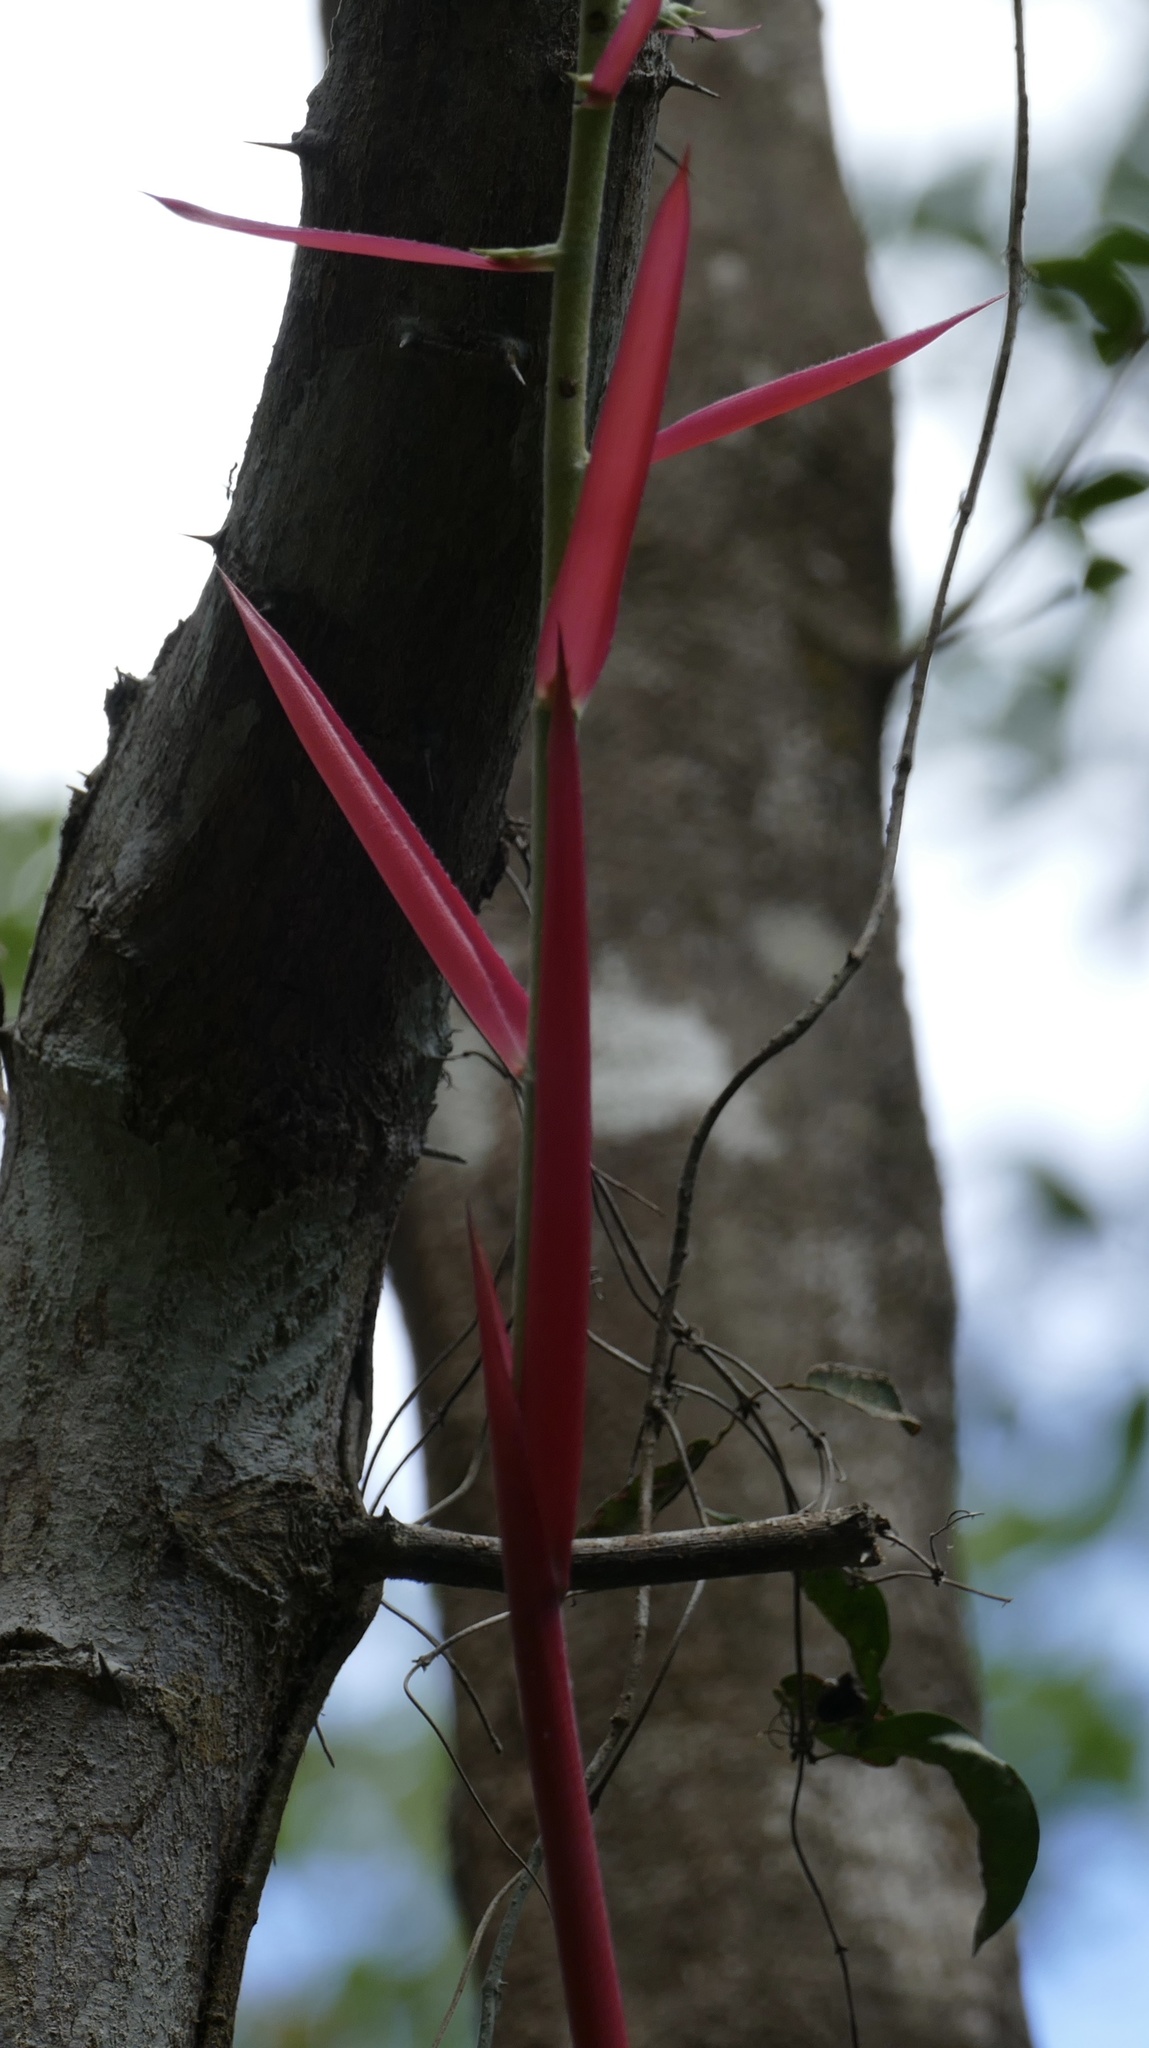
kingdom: Plantae
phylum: Tracheophyta
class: Liliopsida
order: Poales
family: Bromeliaceae
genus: Aechmea
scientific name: Aechmea bracteata
